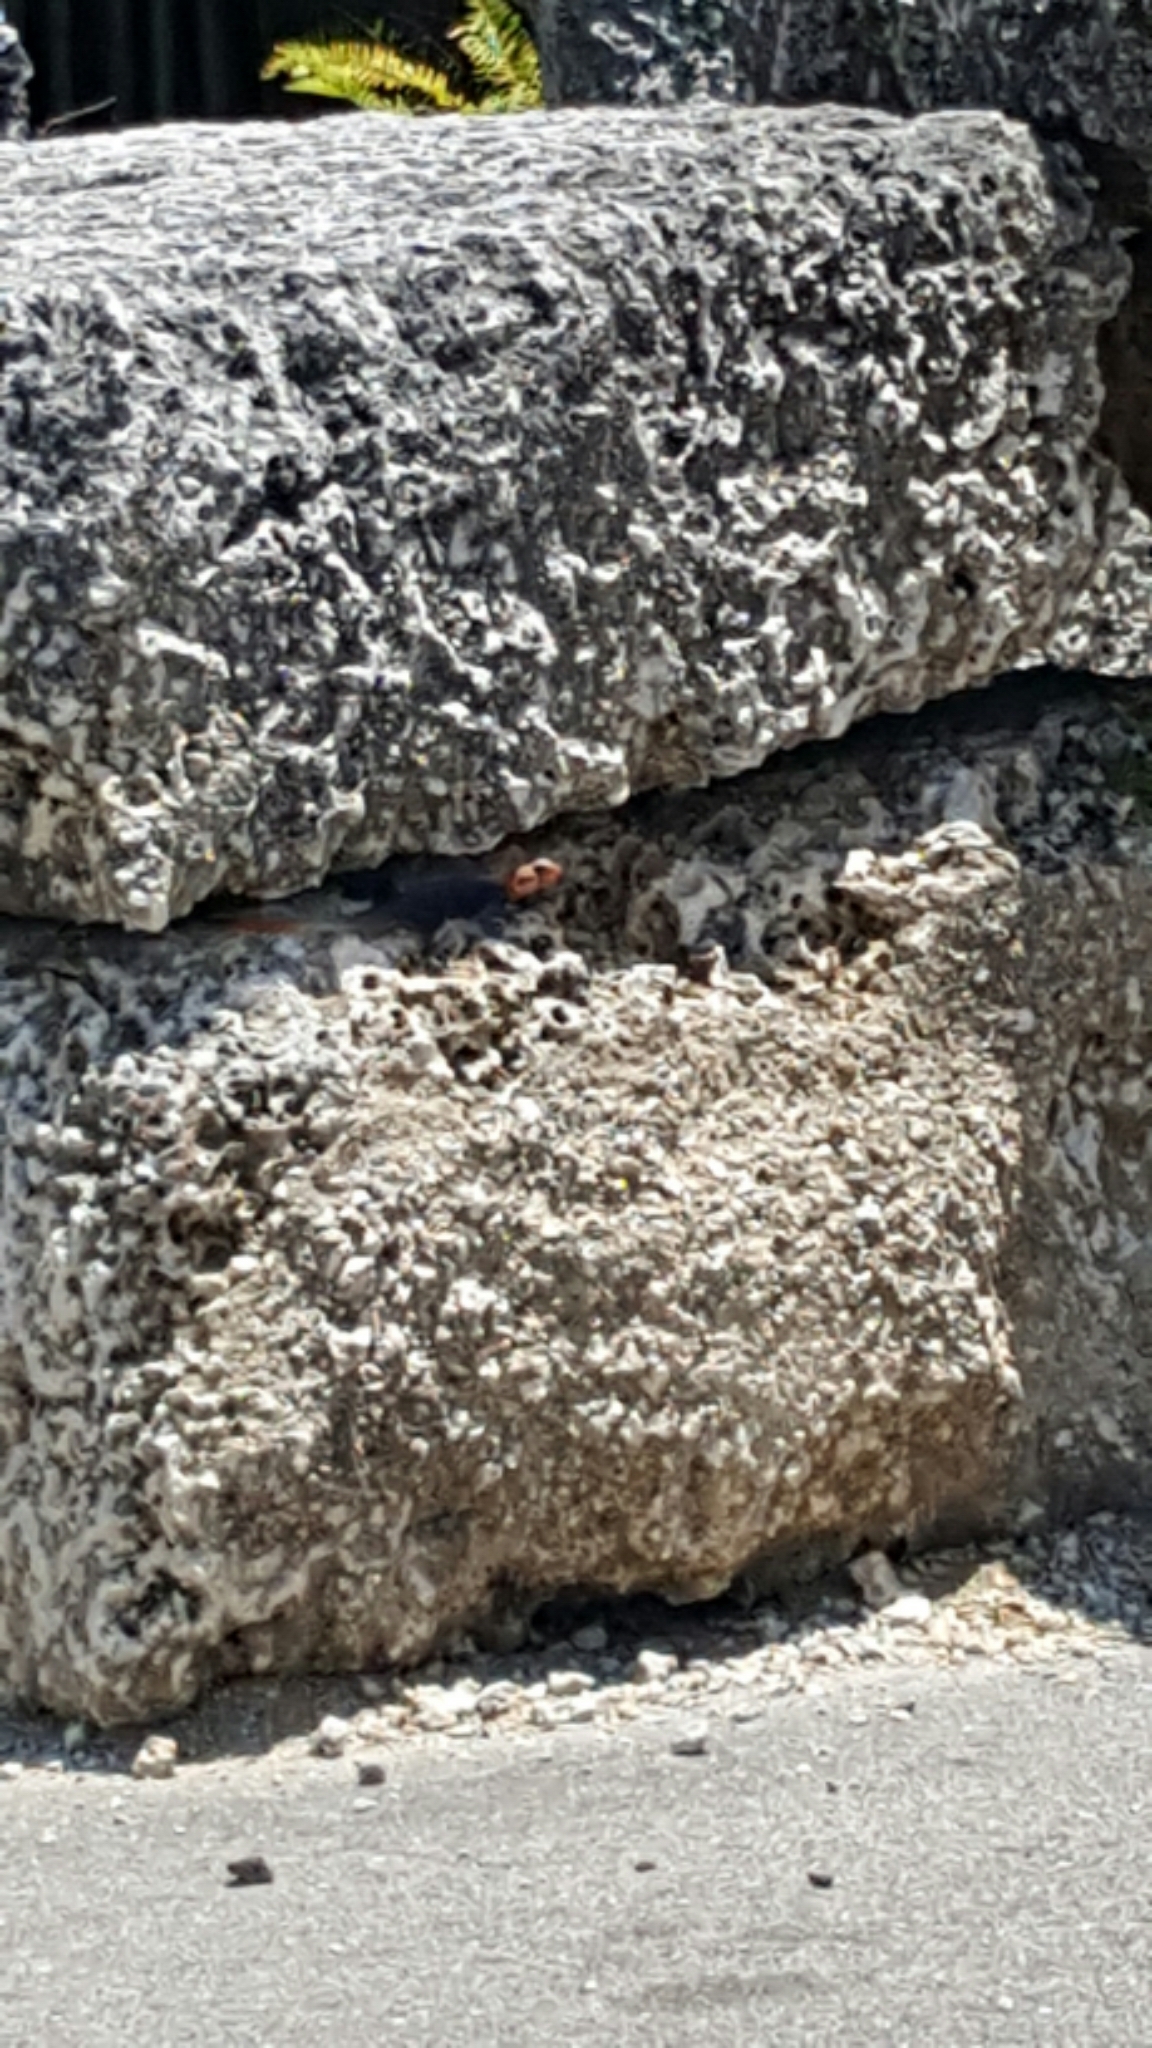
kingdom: Animalia
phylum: Chordata
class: Squamata
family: Agamidae
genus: Agama
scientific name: Agama picticauda
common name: Red-headed agama
